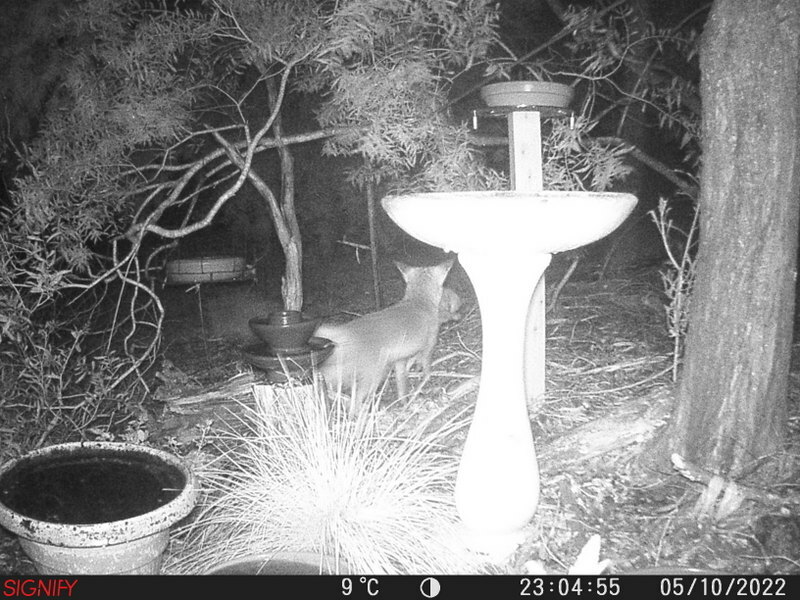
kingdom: Animalia
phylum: Chordata
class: Mammalia
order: Carnivora
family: Canidae
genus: Vulpes
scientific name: Vulpes vulpes
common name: Red fox
